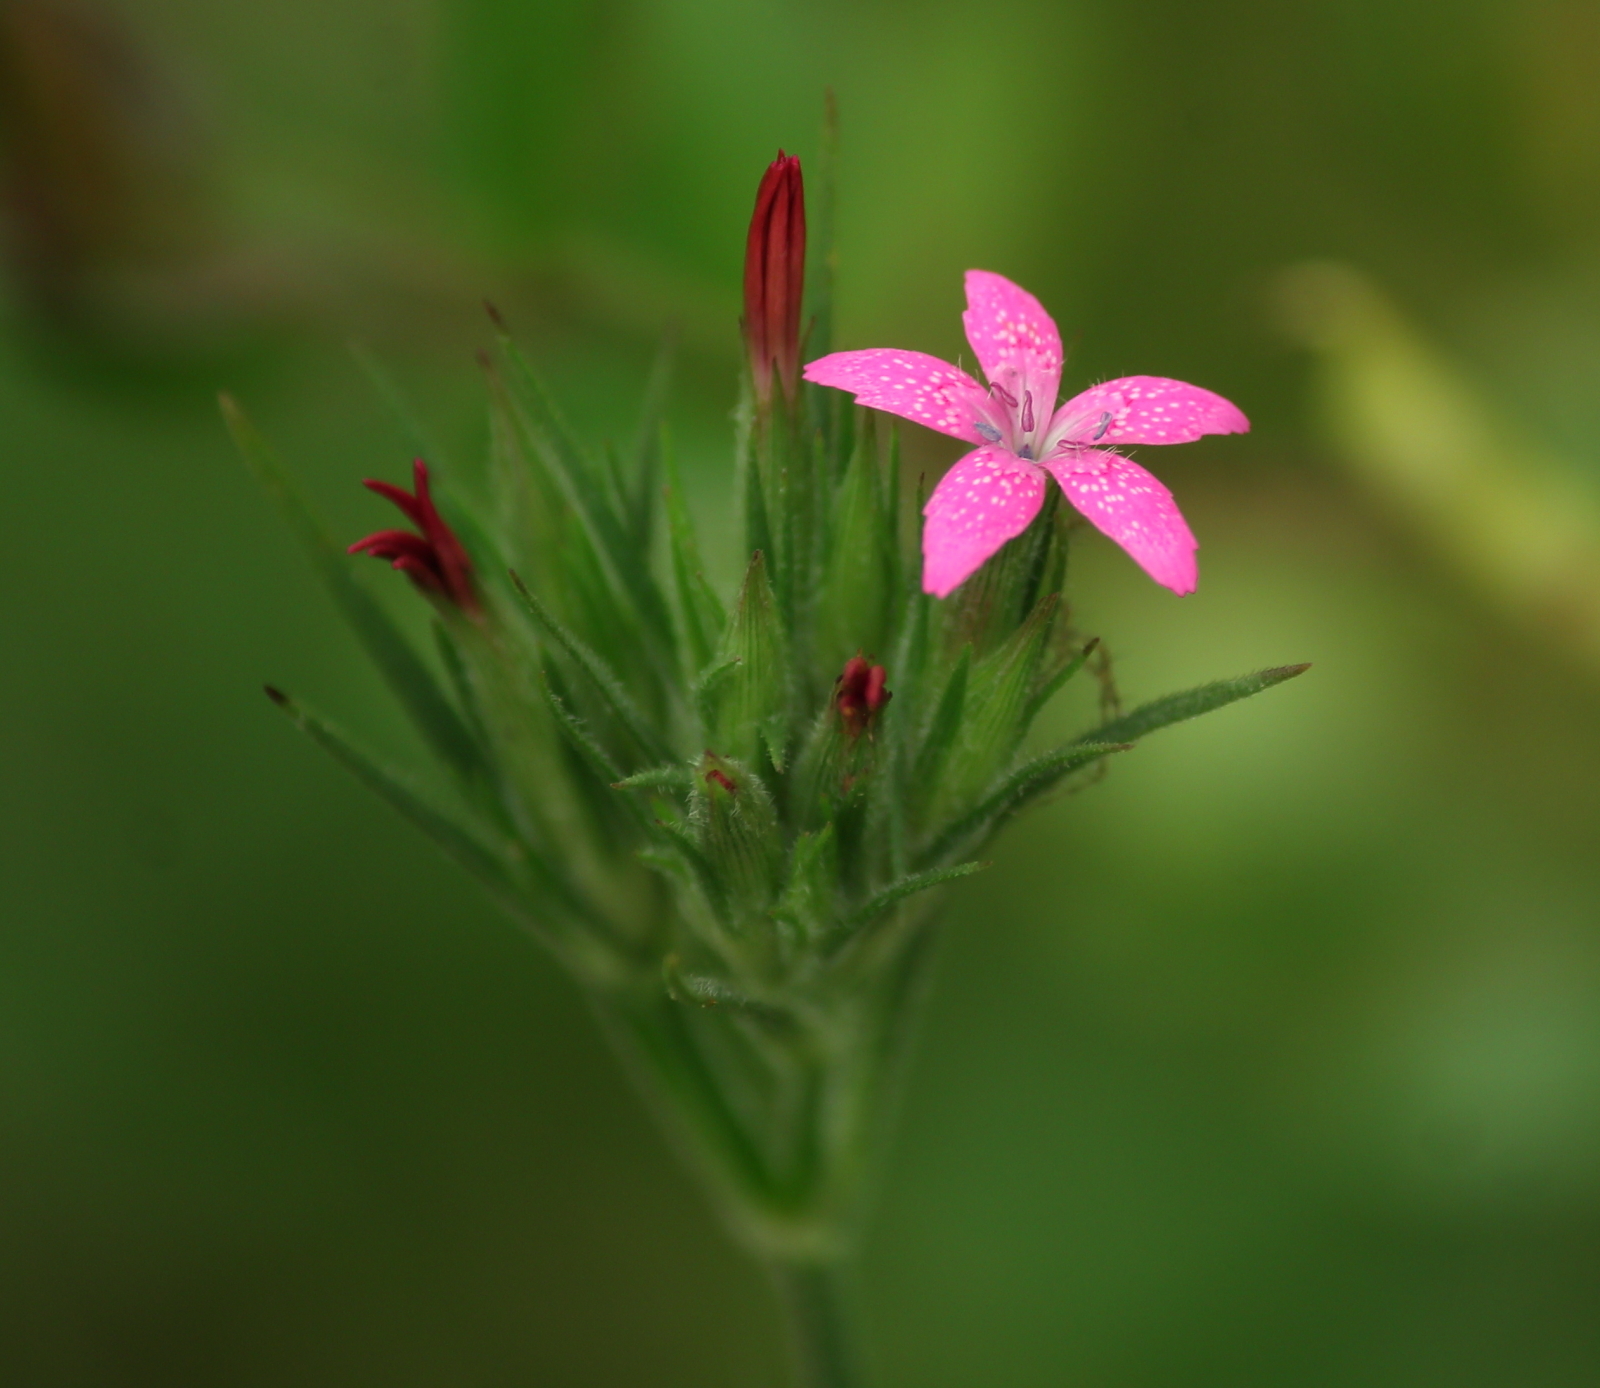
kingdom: Plantae
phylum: Tracheophyta
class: Magnoliopsida
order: Caryophyllales
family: Caryophyllaceae
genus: Dianthus
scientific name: Dianthus armeria
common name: Deptford pink
